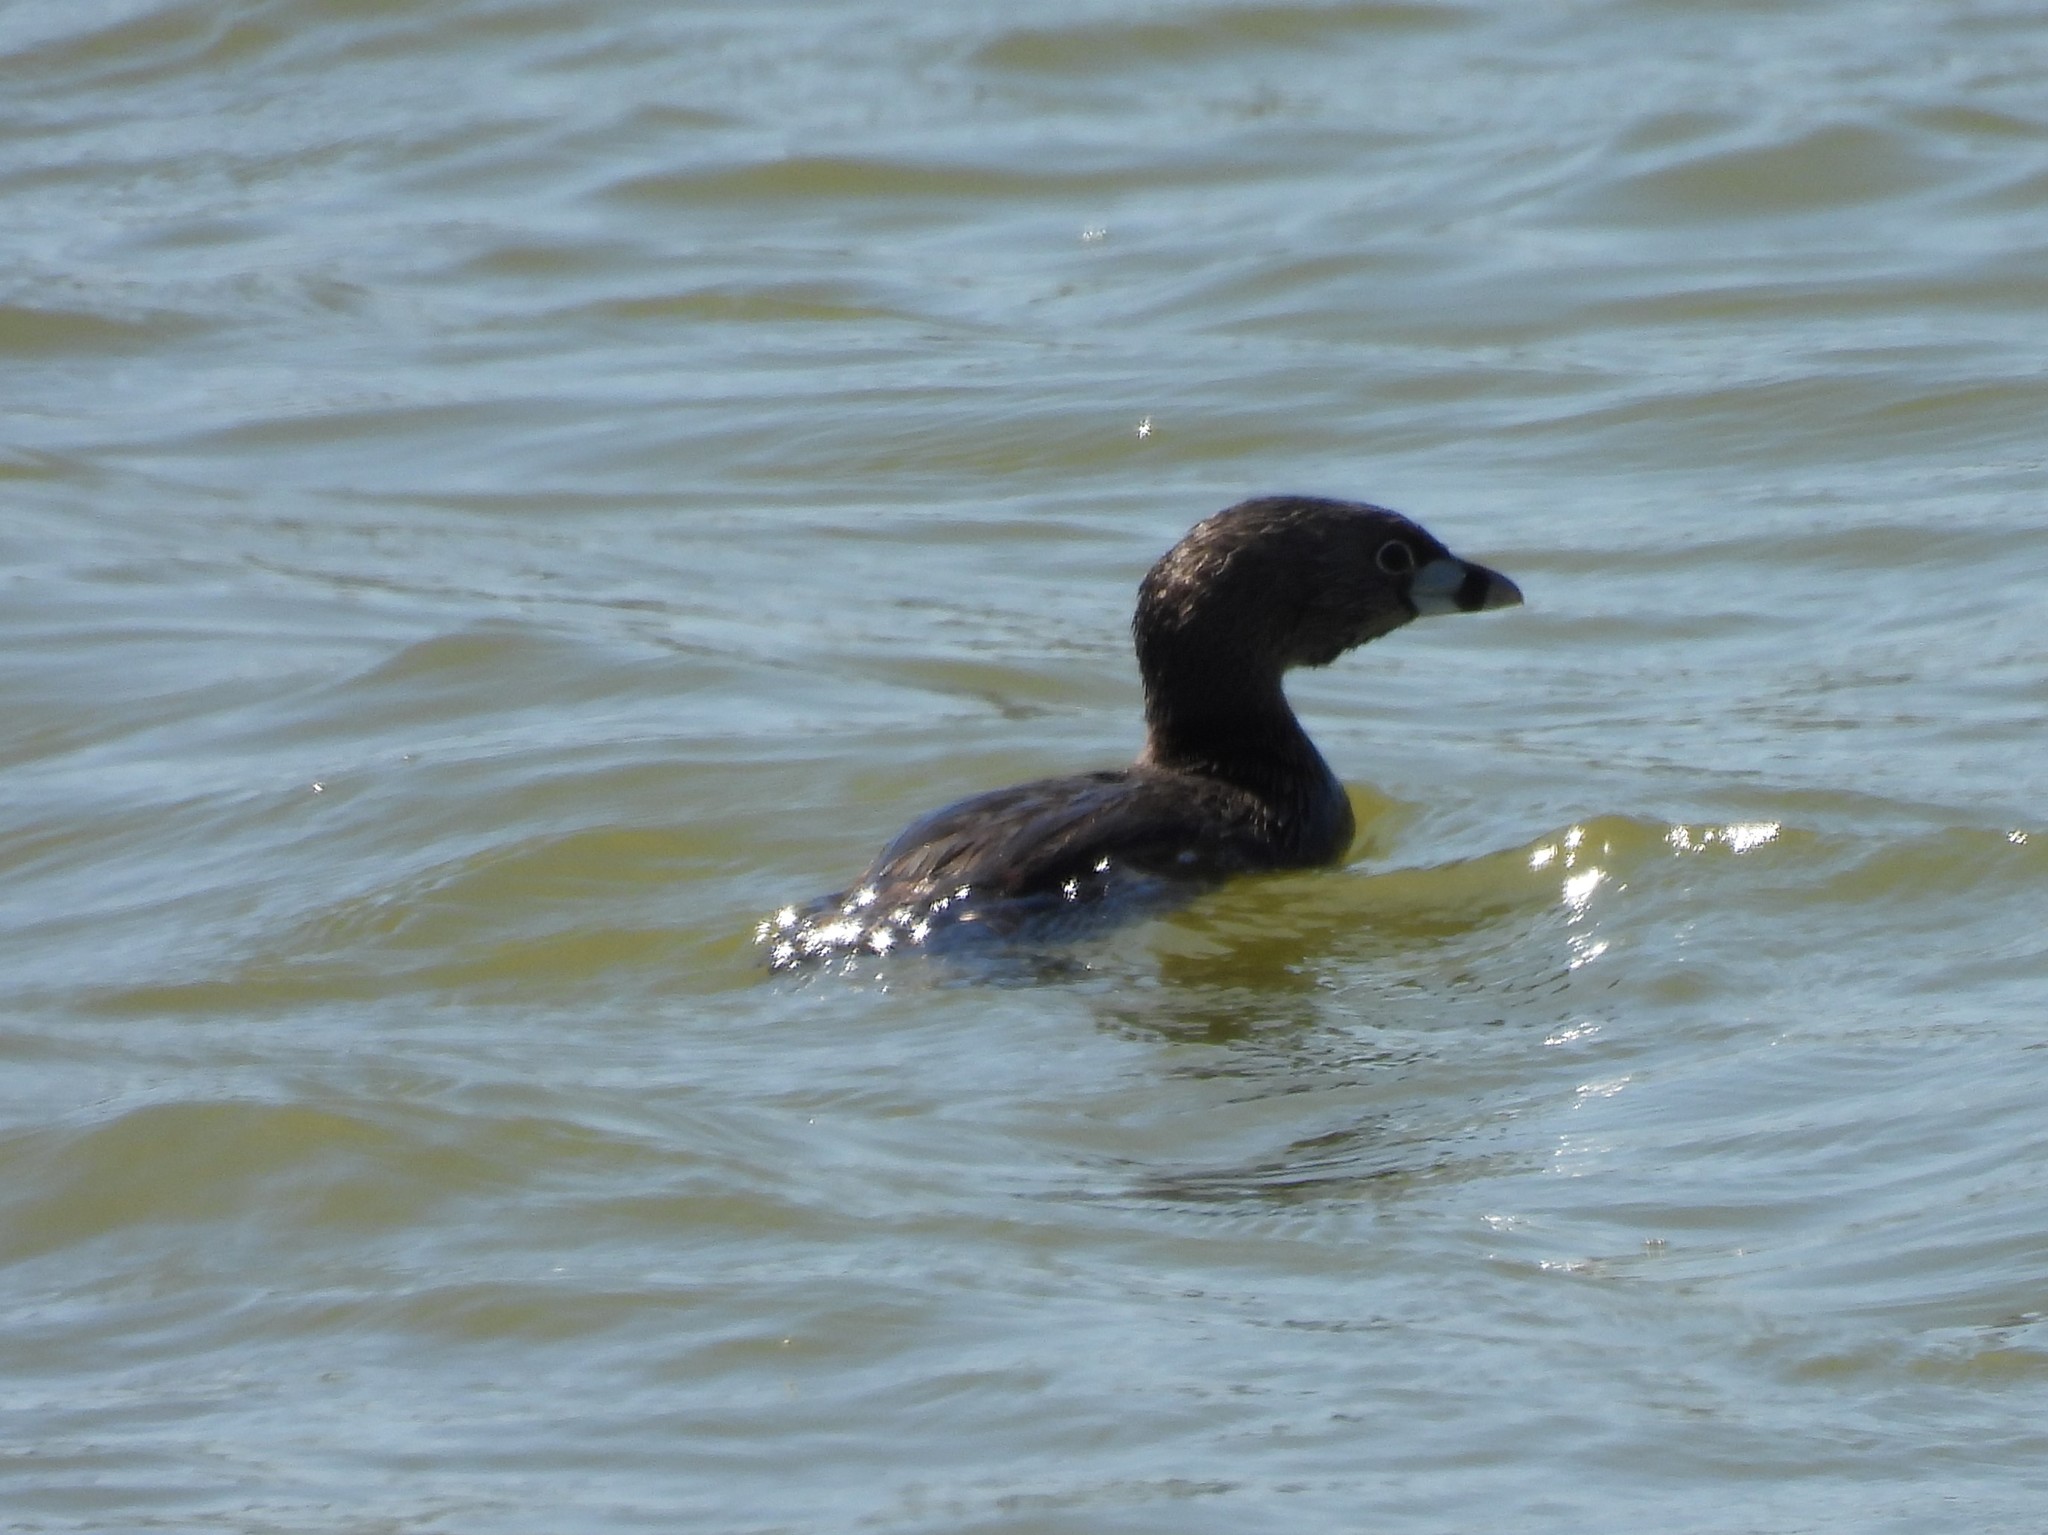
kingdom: Animalia
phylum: Chordata
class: Aves
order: Podicipediformes
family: Podicipedidae
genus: Podilymbus
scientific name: Podilymbus podiceps
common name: Pied-billed grebe
